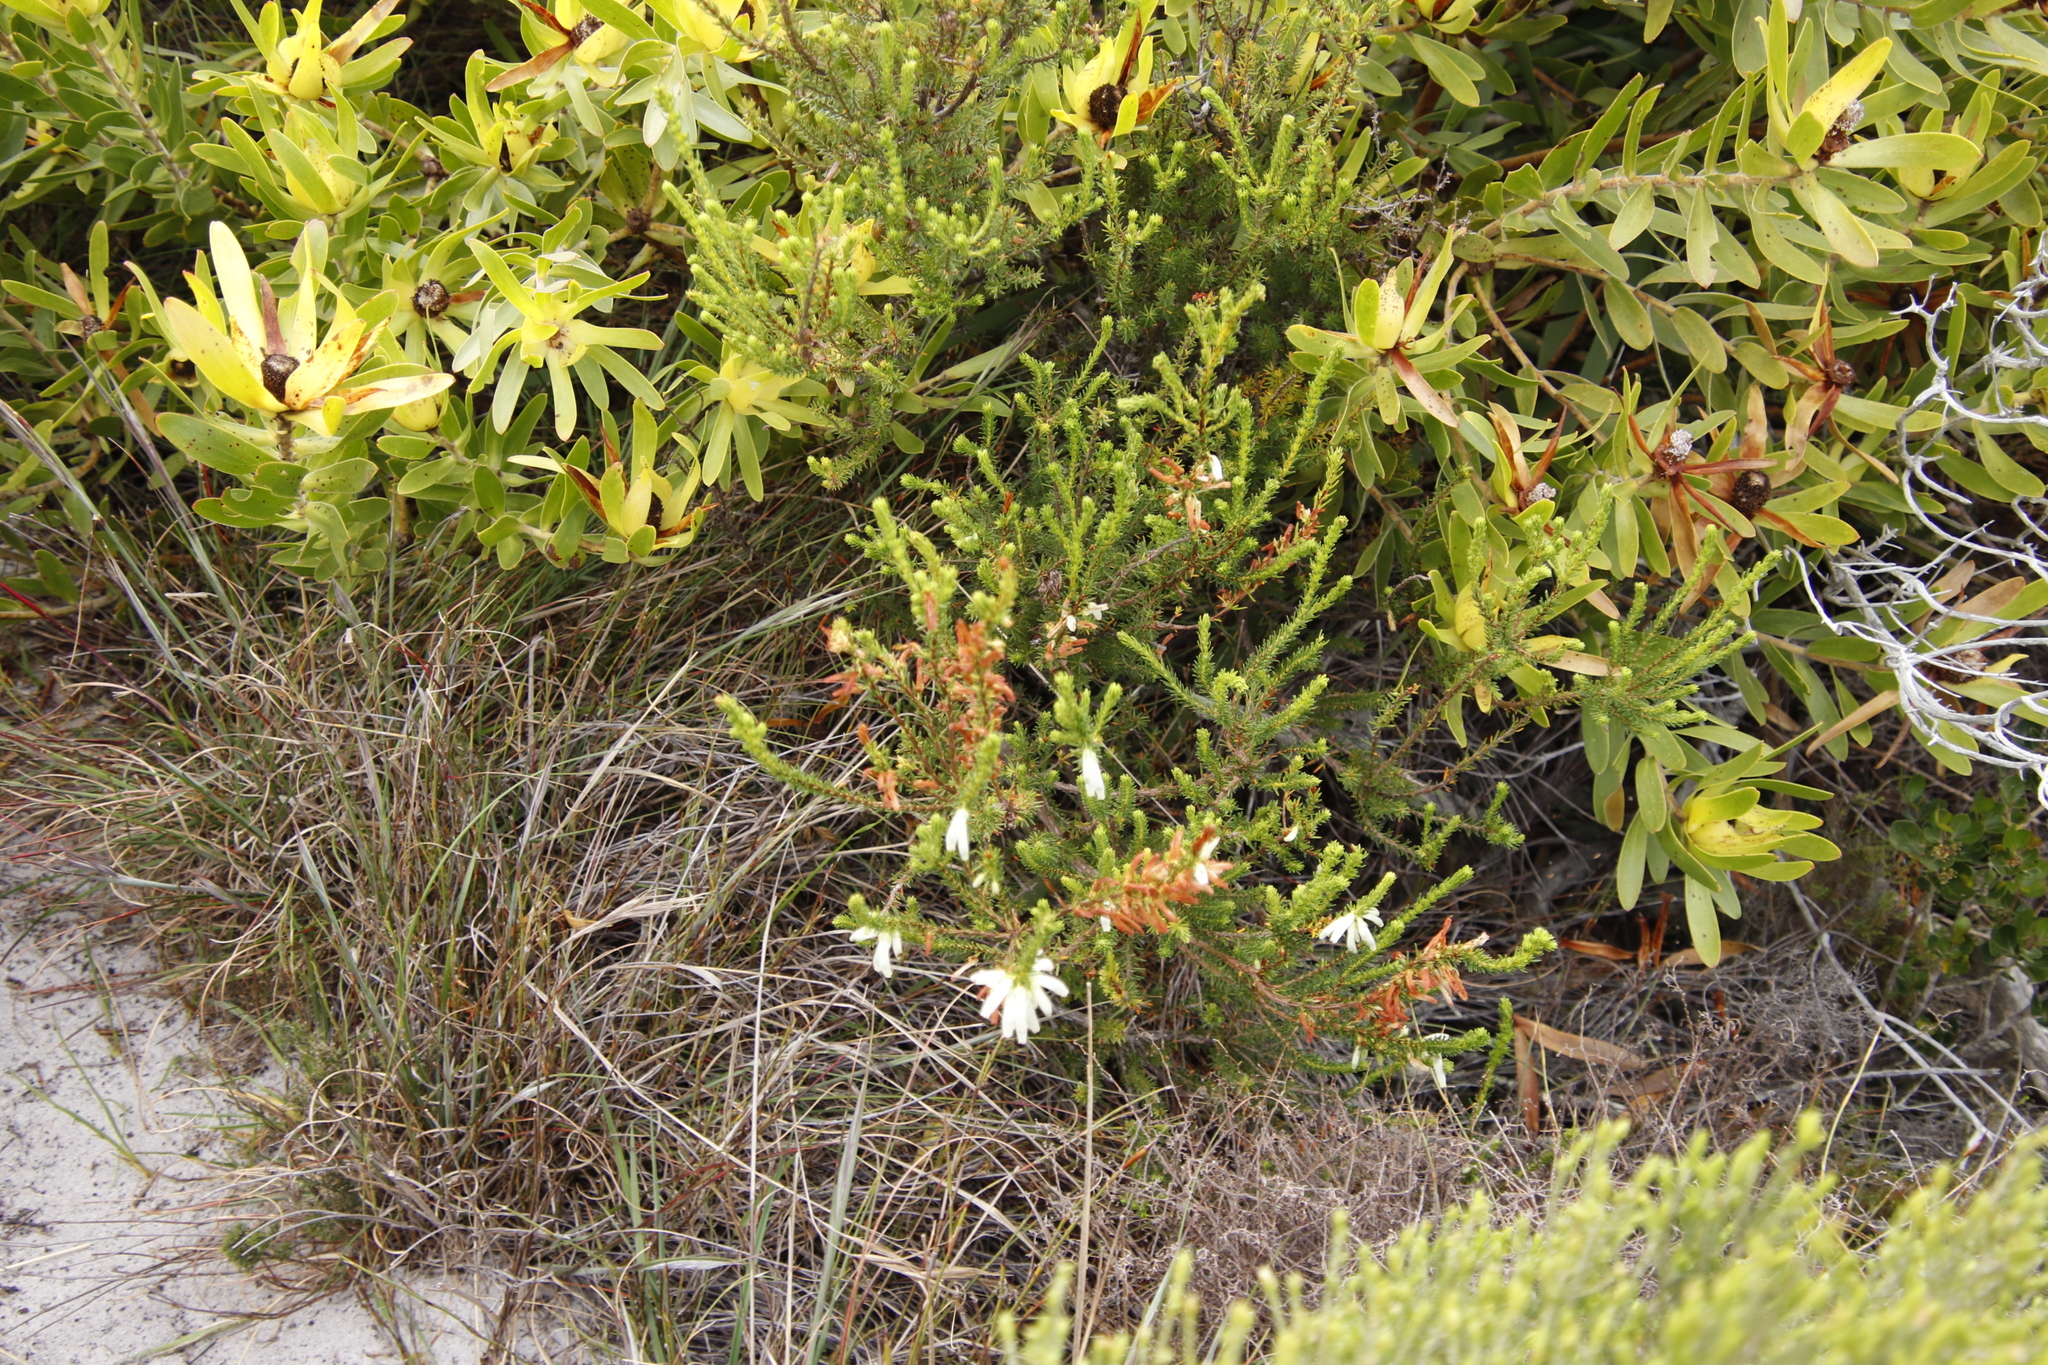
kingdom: Plantae
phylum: Tracheophyta
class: Magnoliopsida
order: Ericales
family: Ericaceae
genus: Erica
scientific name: Erica mammosa
